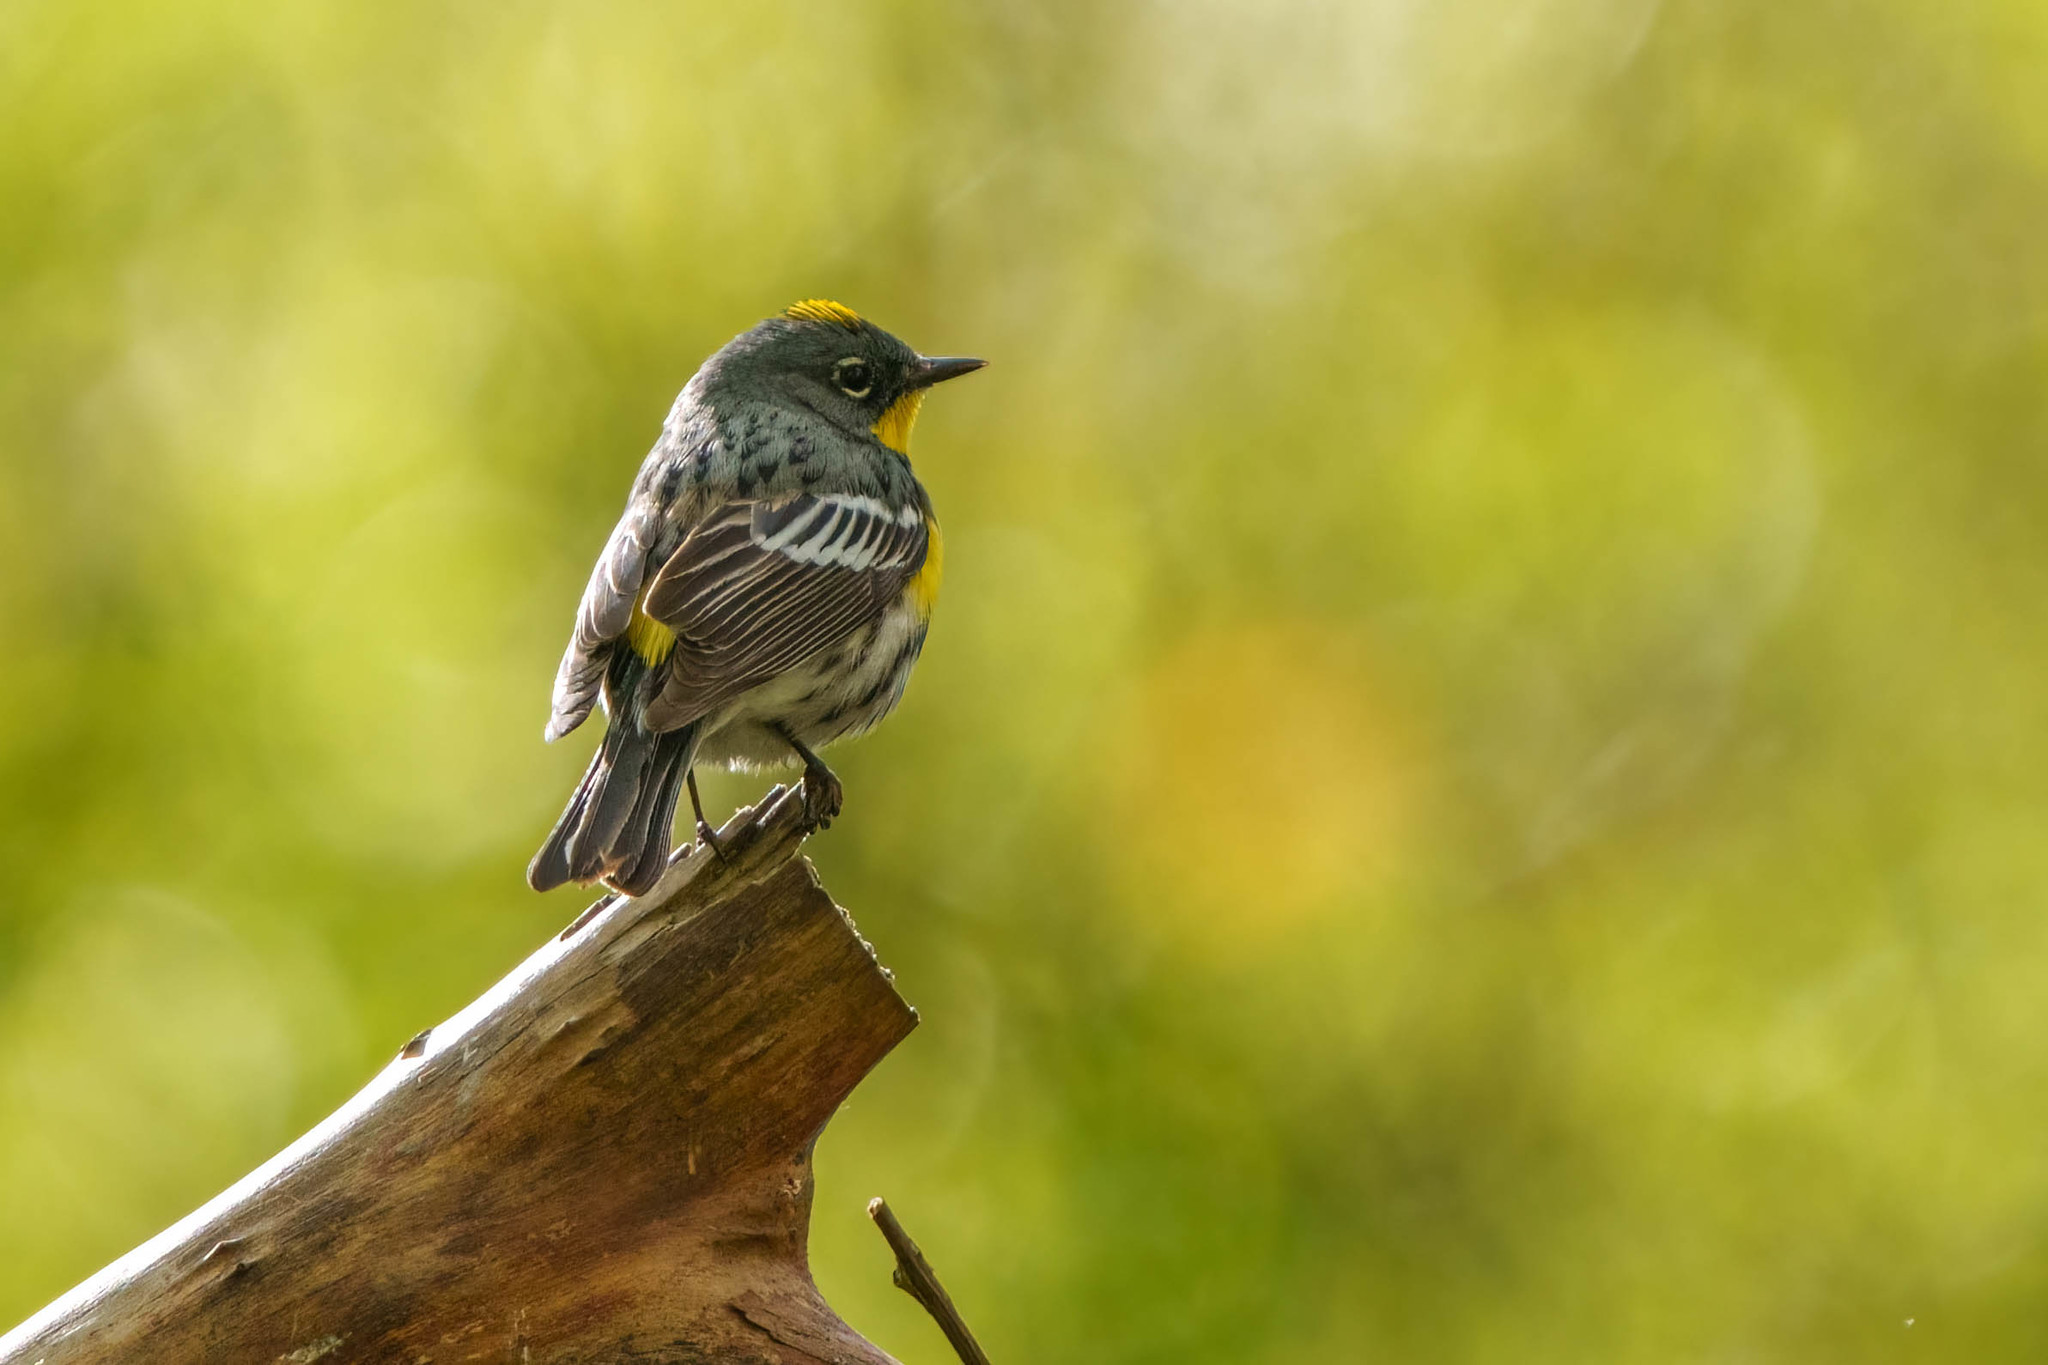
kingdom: Animalia
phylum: Chordata
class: Aves
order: Passeriformes
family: Parulidae
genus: Setophaga
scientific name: Setophaga auduboni
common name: Audubon's warbler
